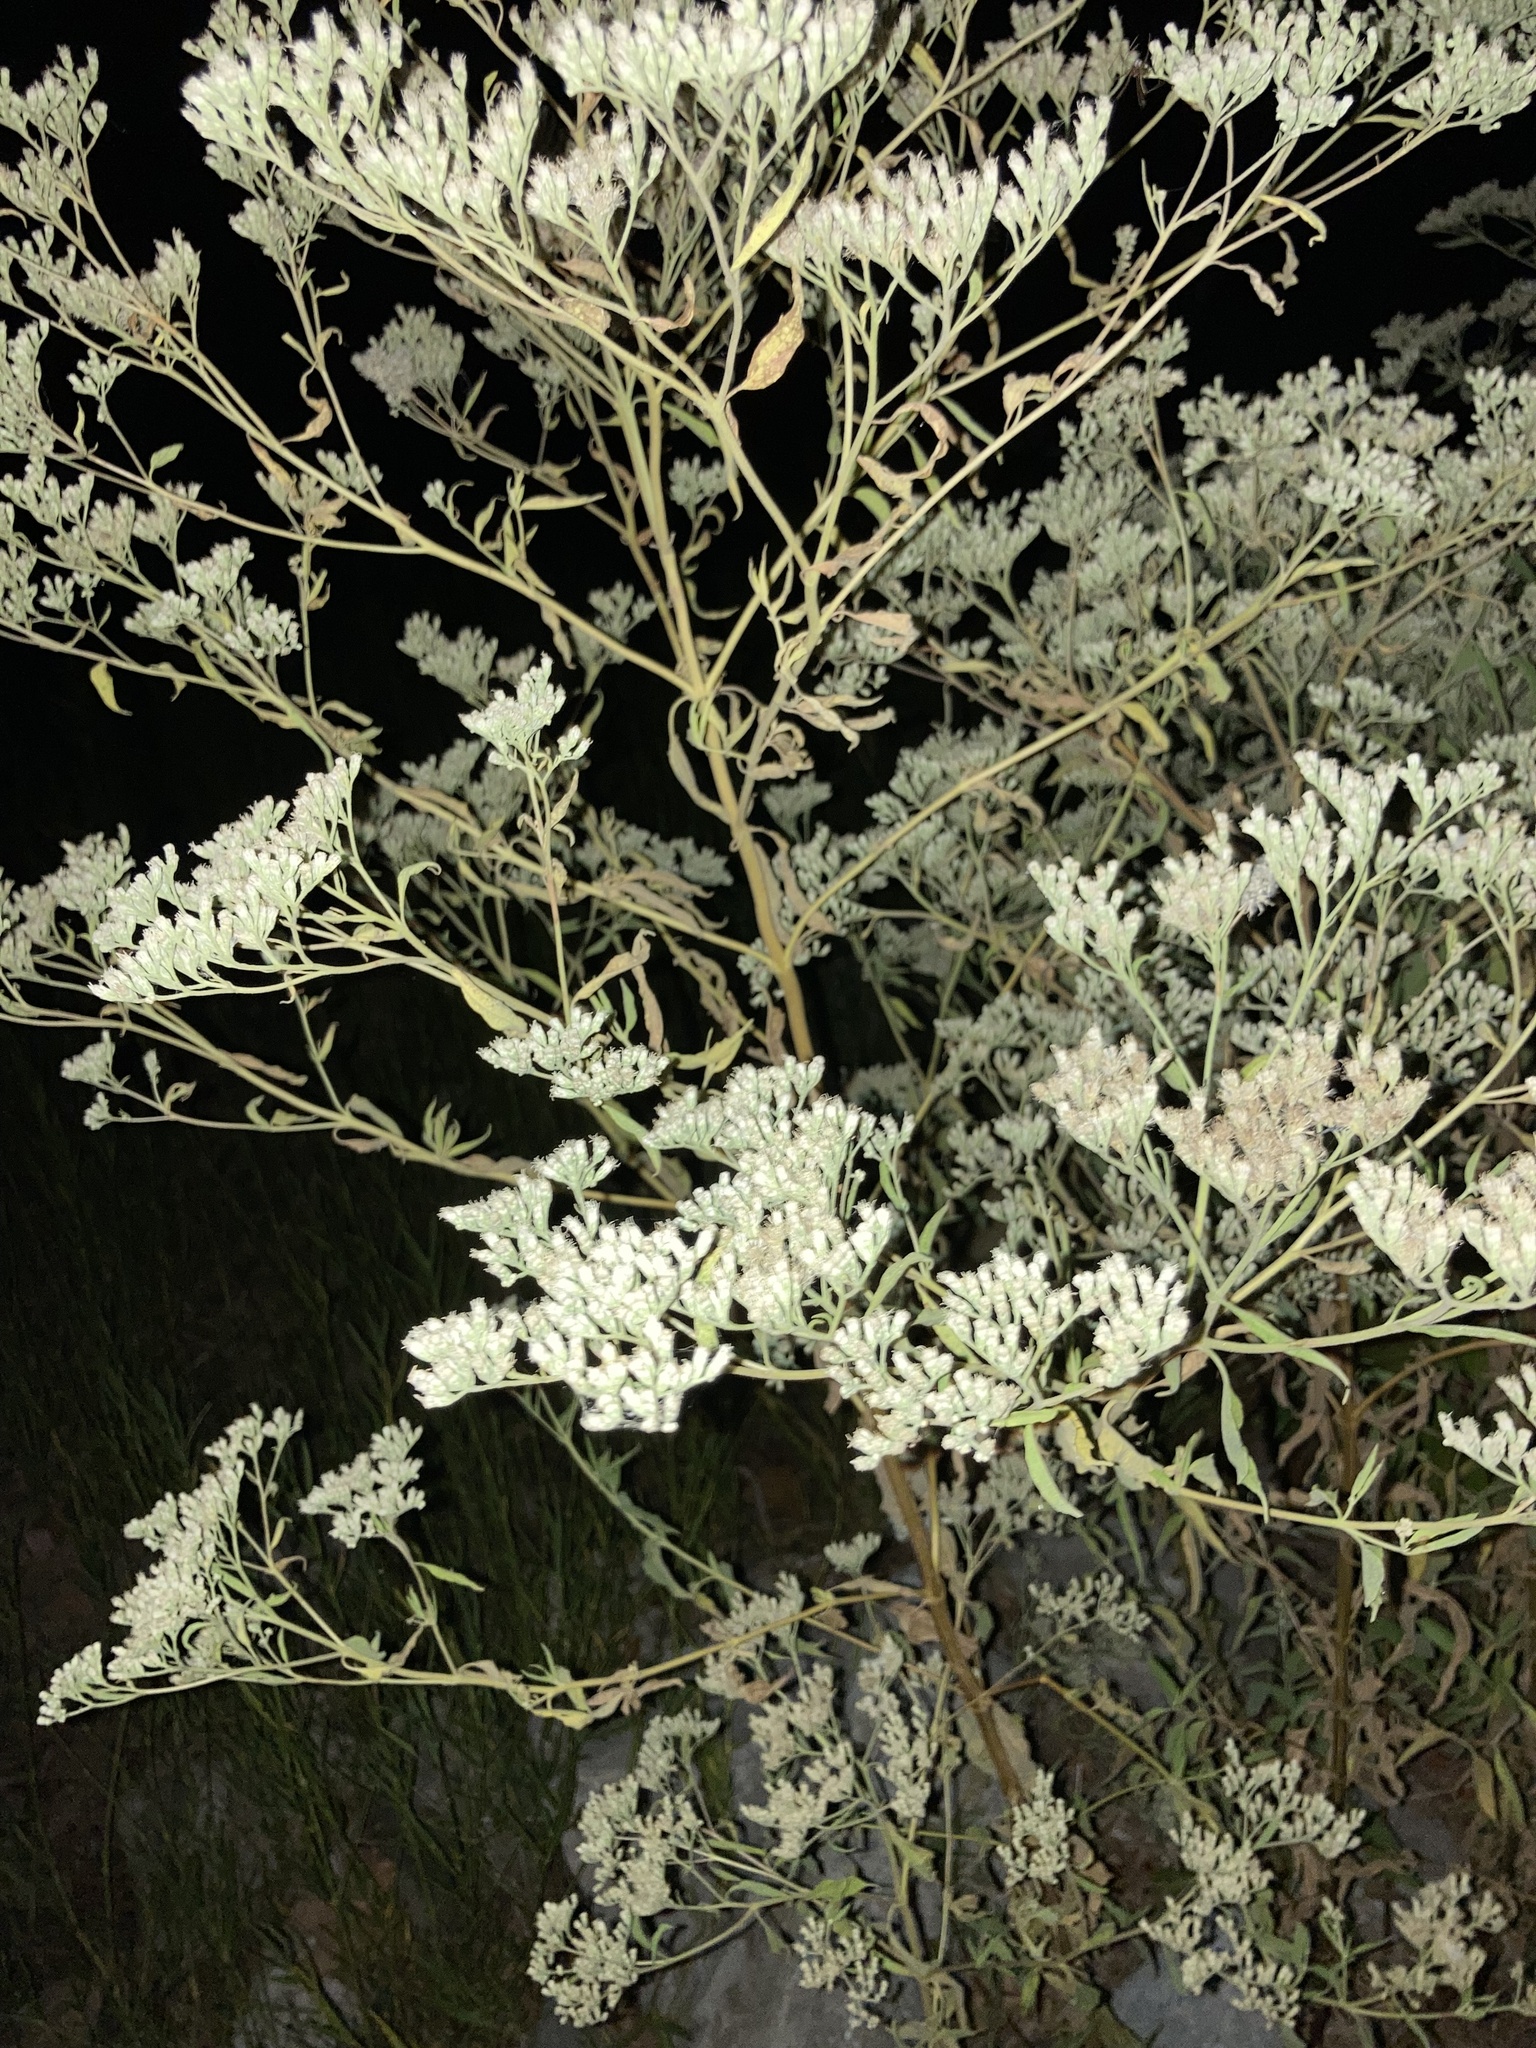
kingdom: Plantae
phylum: Tracheophyta
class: Magnoliopsida
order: Asterales
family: Asteraceae
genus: Eupatorium
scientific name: Eupatorium serotinum
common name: Late boneset
